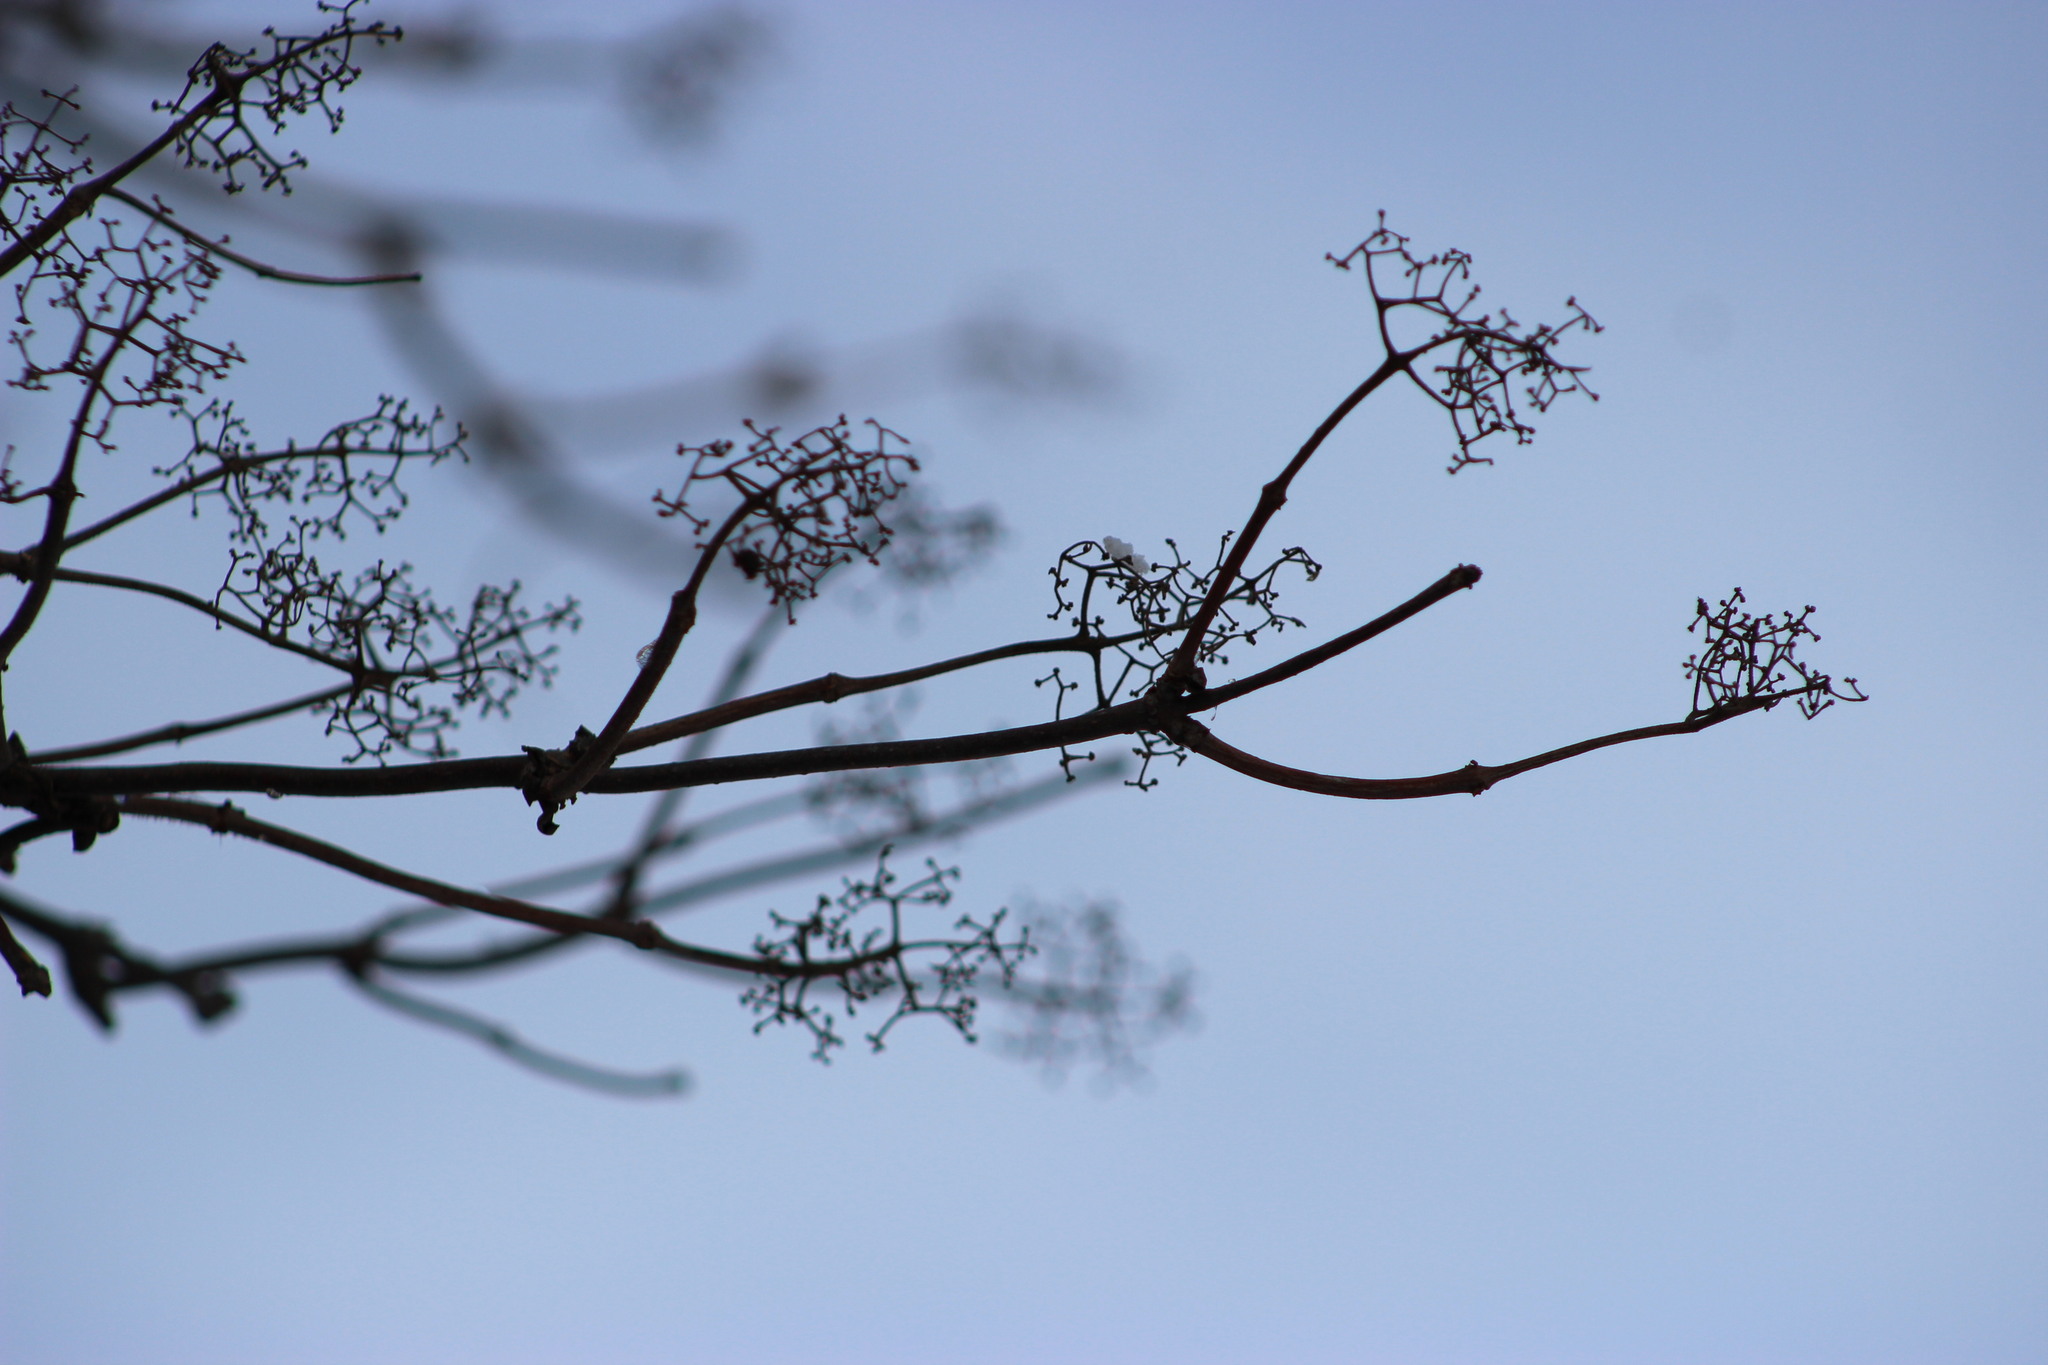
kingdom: Plantae
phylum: Tracheophyta
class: Magnoliopsida
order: Dipsacales
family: Viburnaceae
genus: Sambucus
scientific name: Sambucus sibirica
